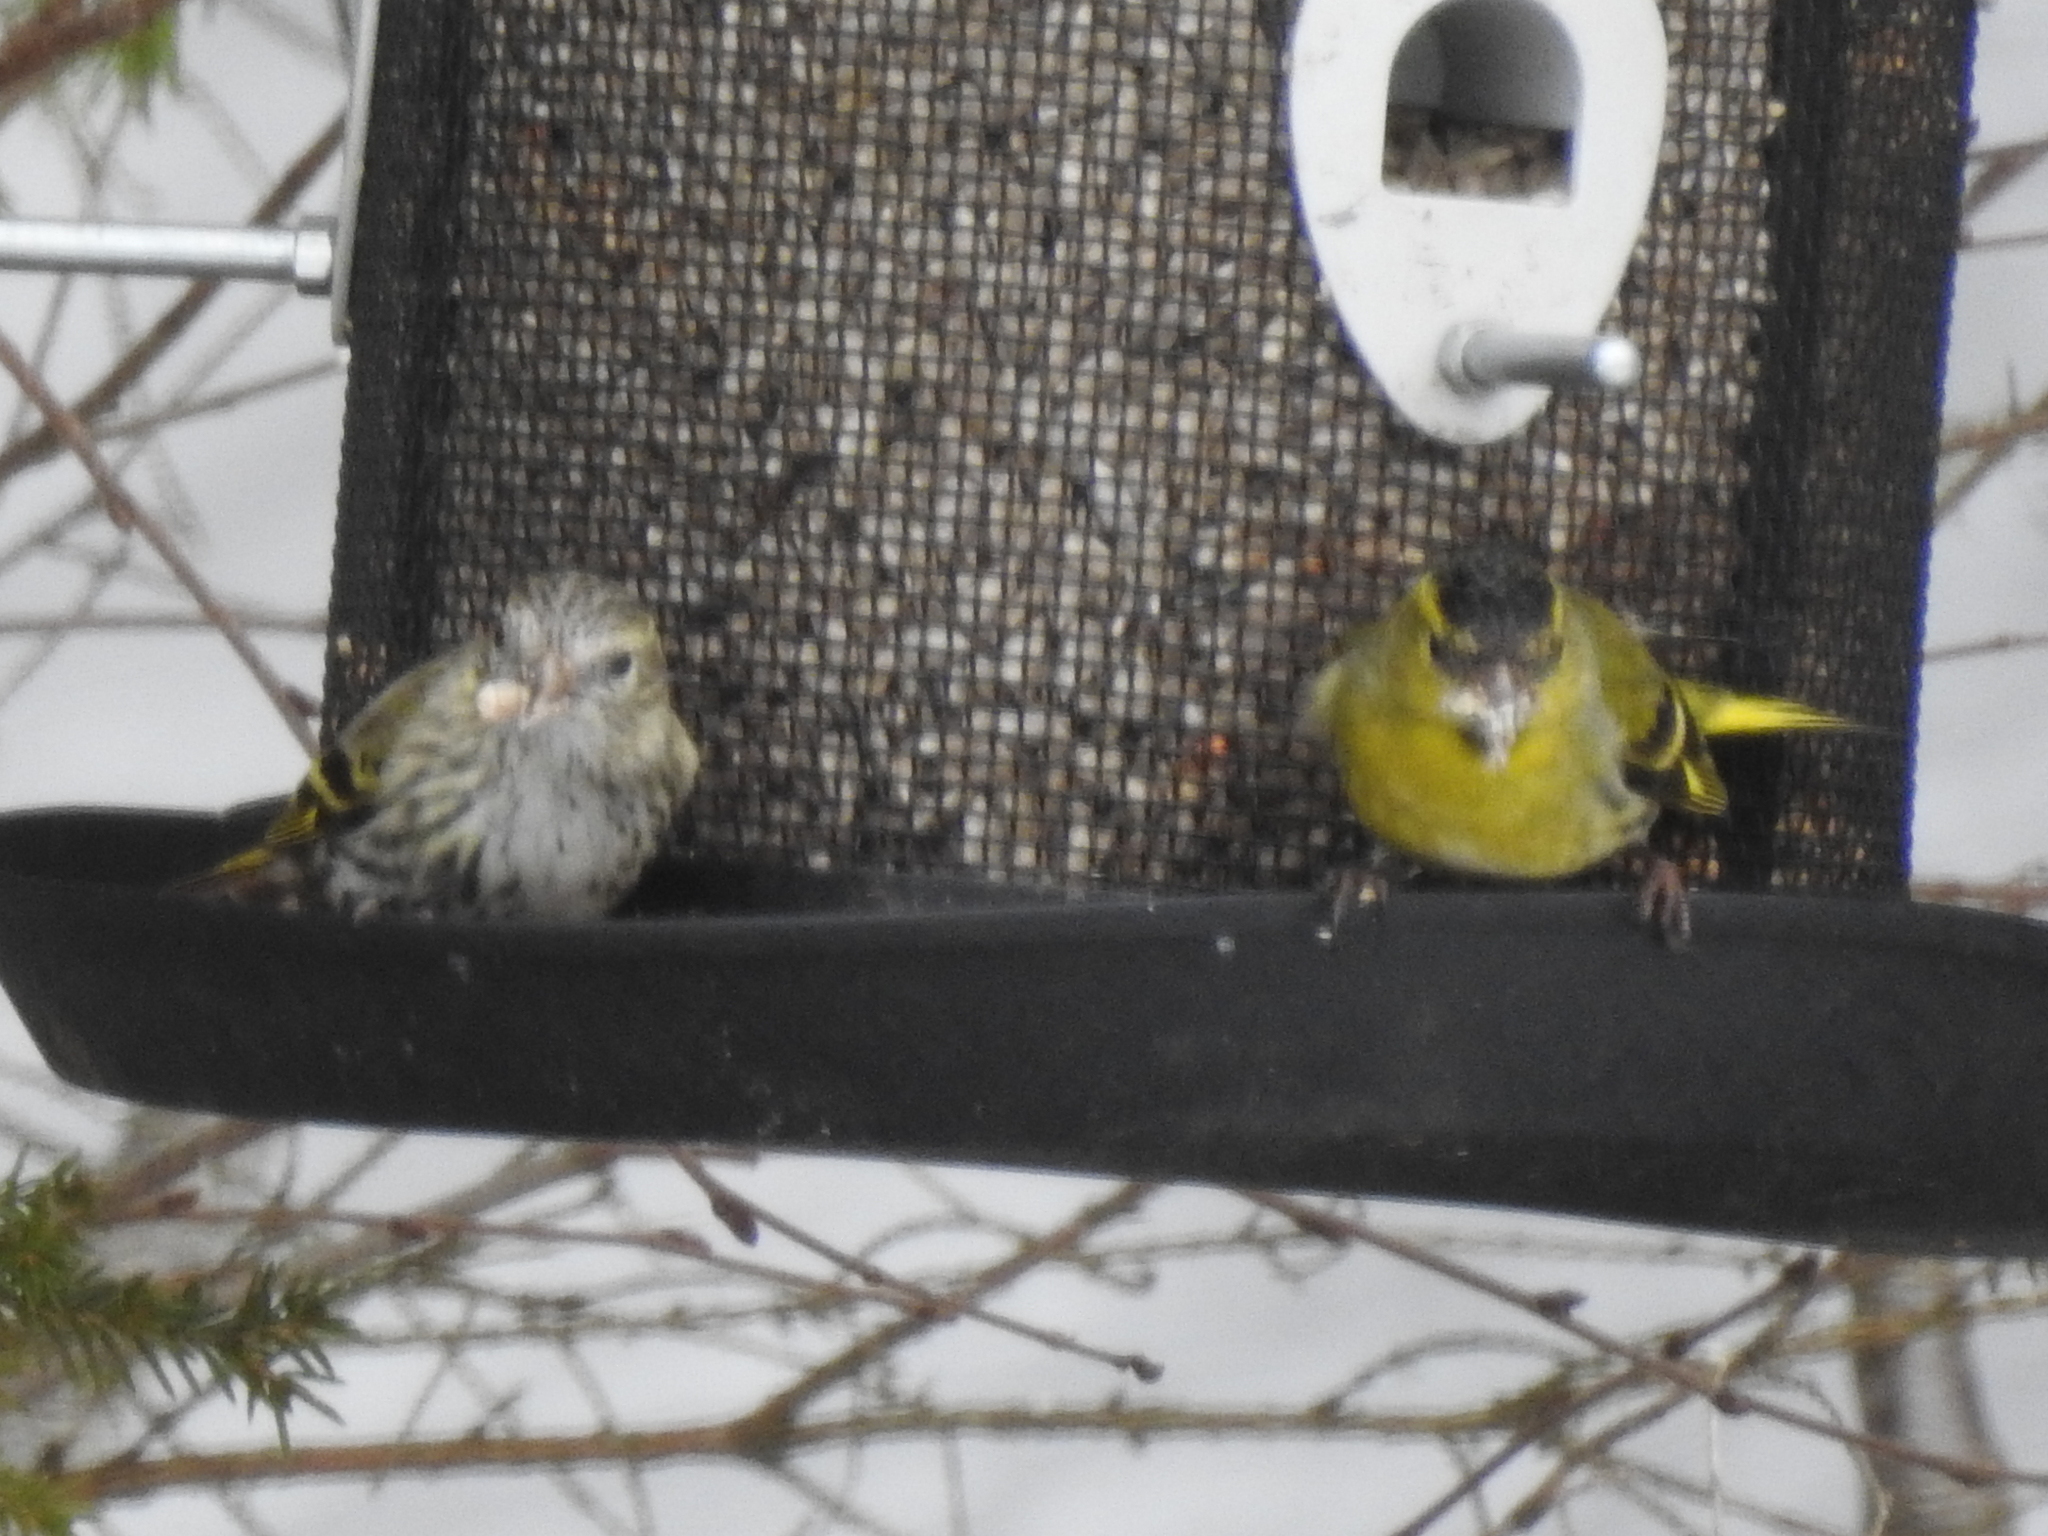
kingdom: Animalia
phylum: Chordata
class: Aves
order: Passeriformes
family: Fringillidae
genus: Spinus
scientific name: Spinus spinus
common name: Eurasian siskin
